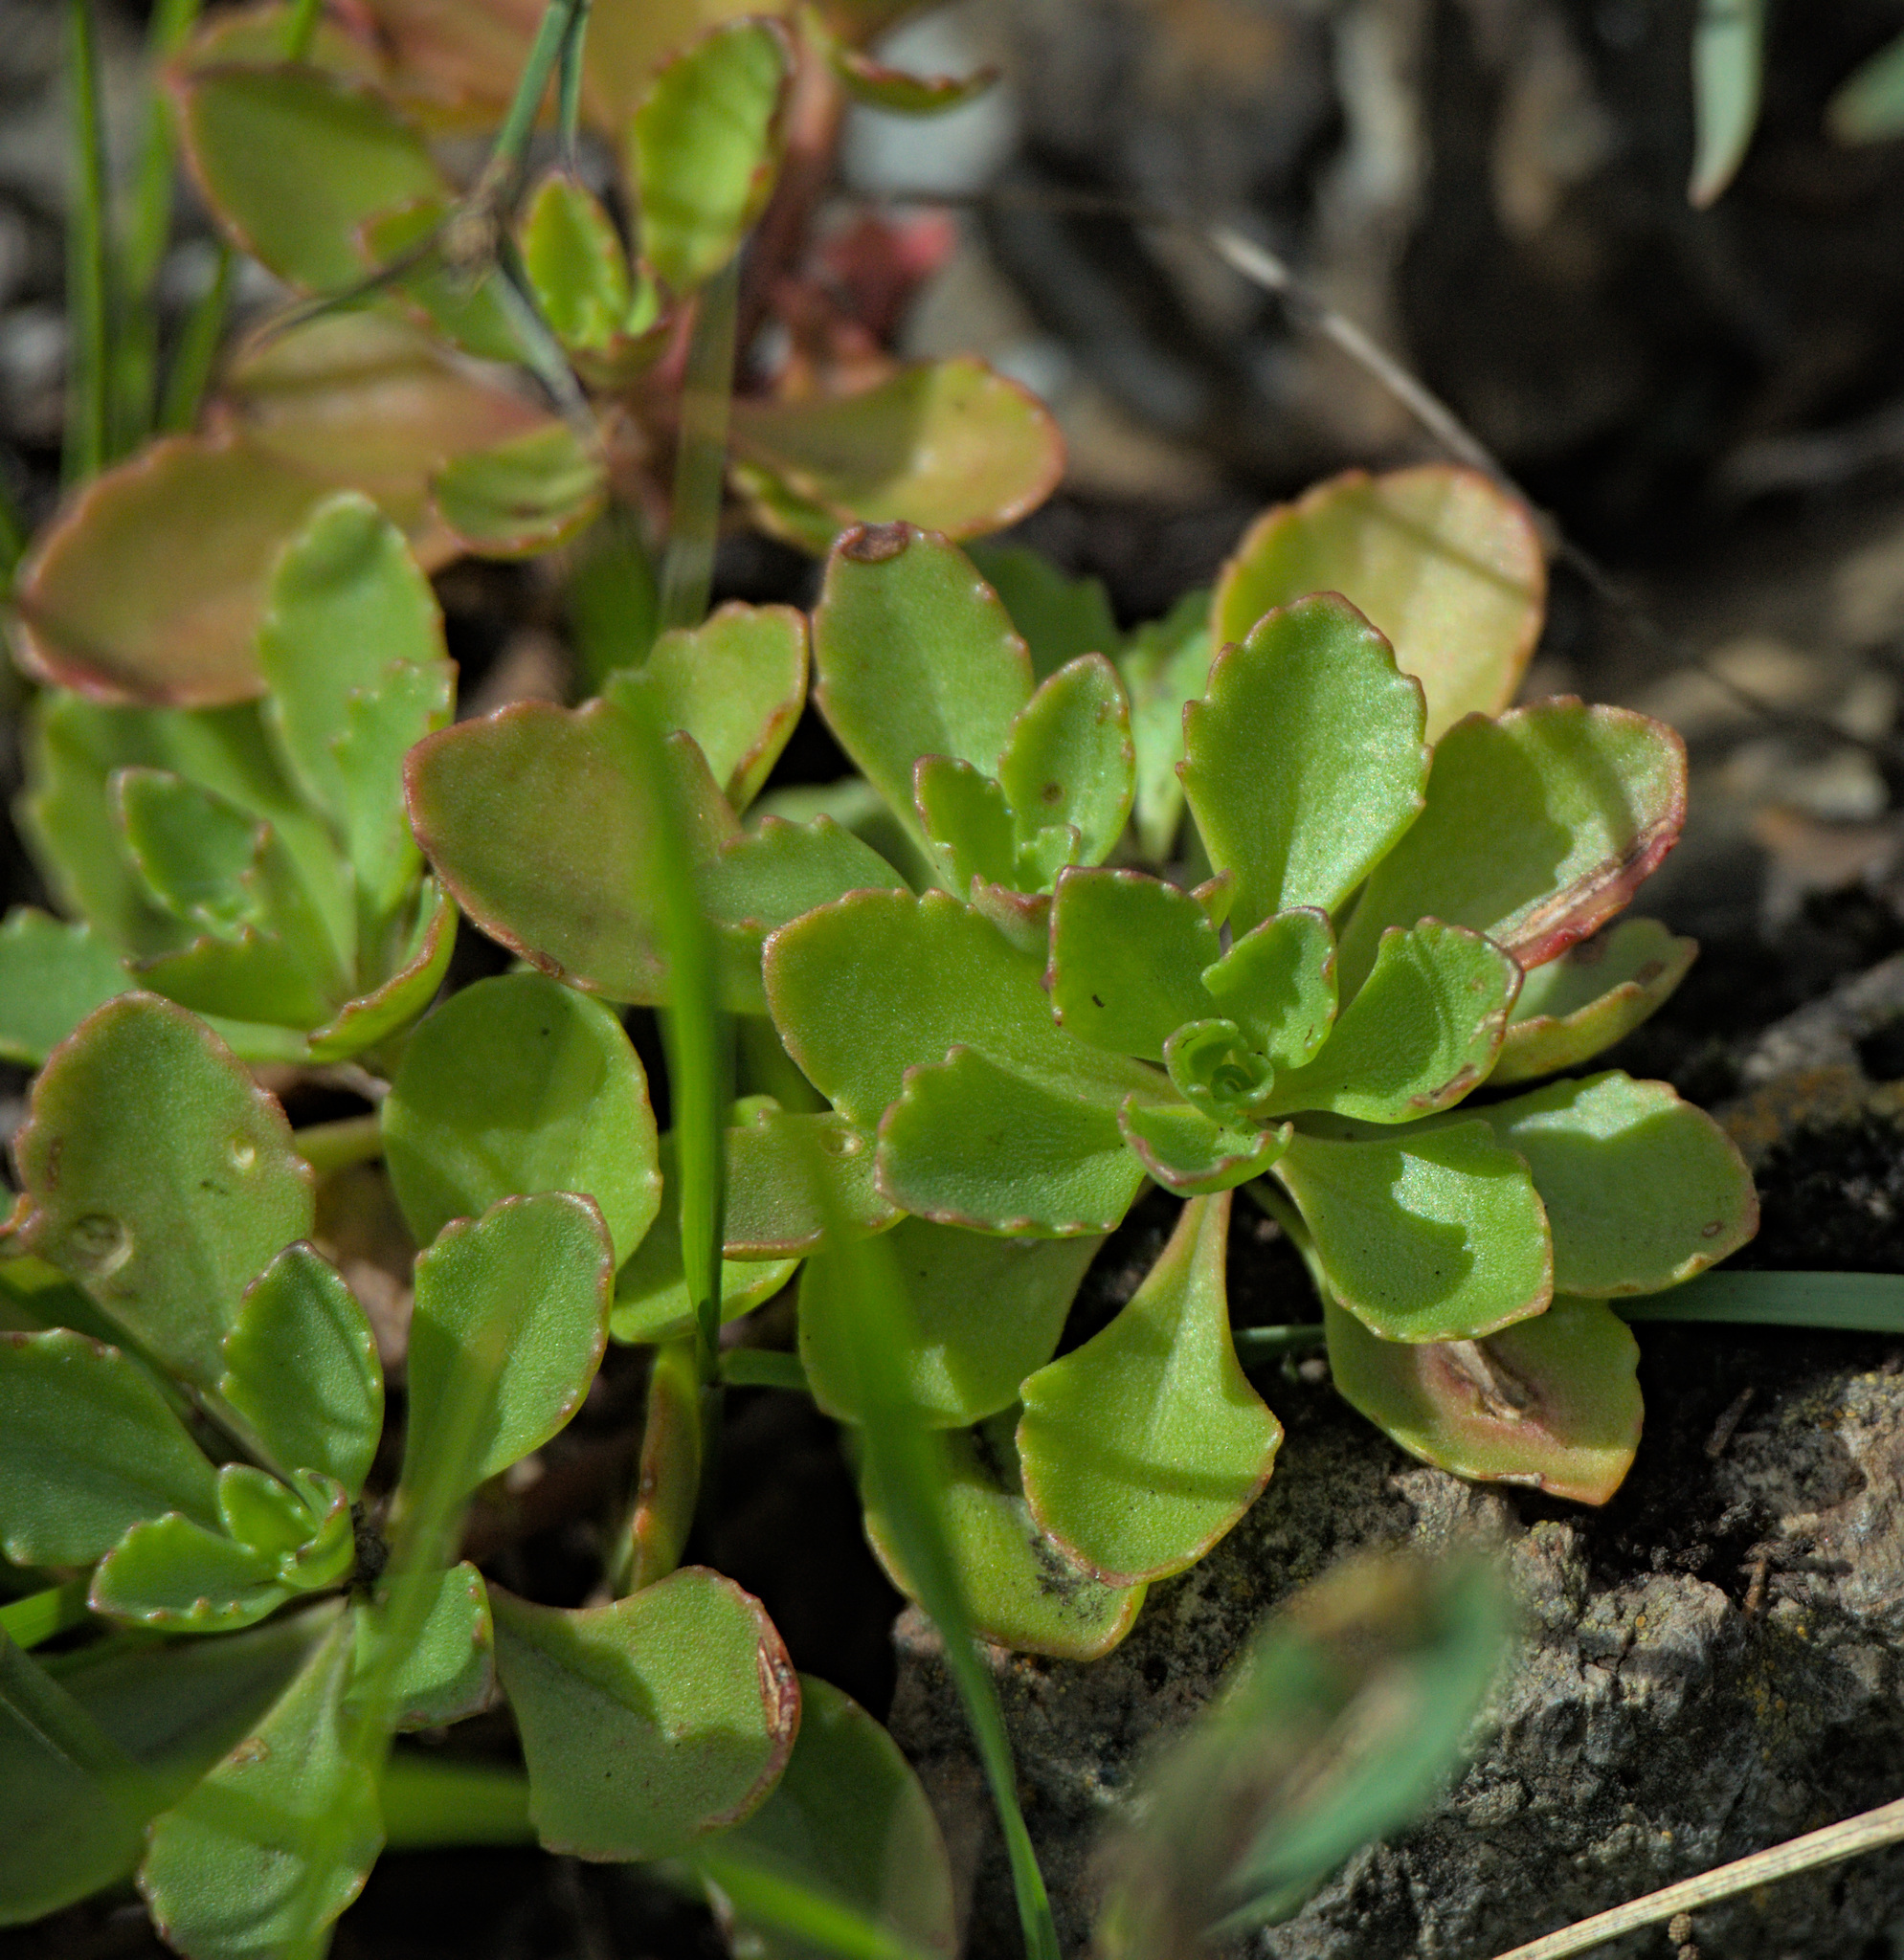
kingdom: Plantae
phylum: Tracheophyta
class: Magnoliopsida
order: Saxifragales
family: Crassulaceae
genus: Phedimus
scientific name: Phedimus hybridus
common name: Hybrid stonecrop
